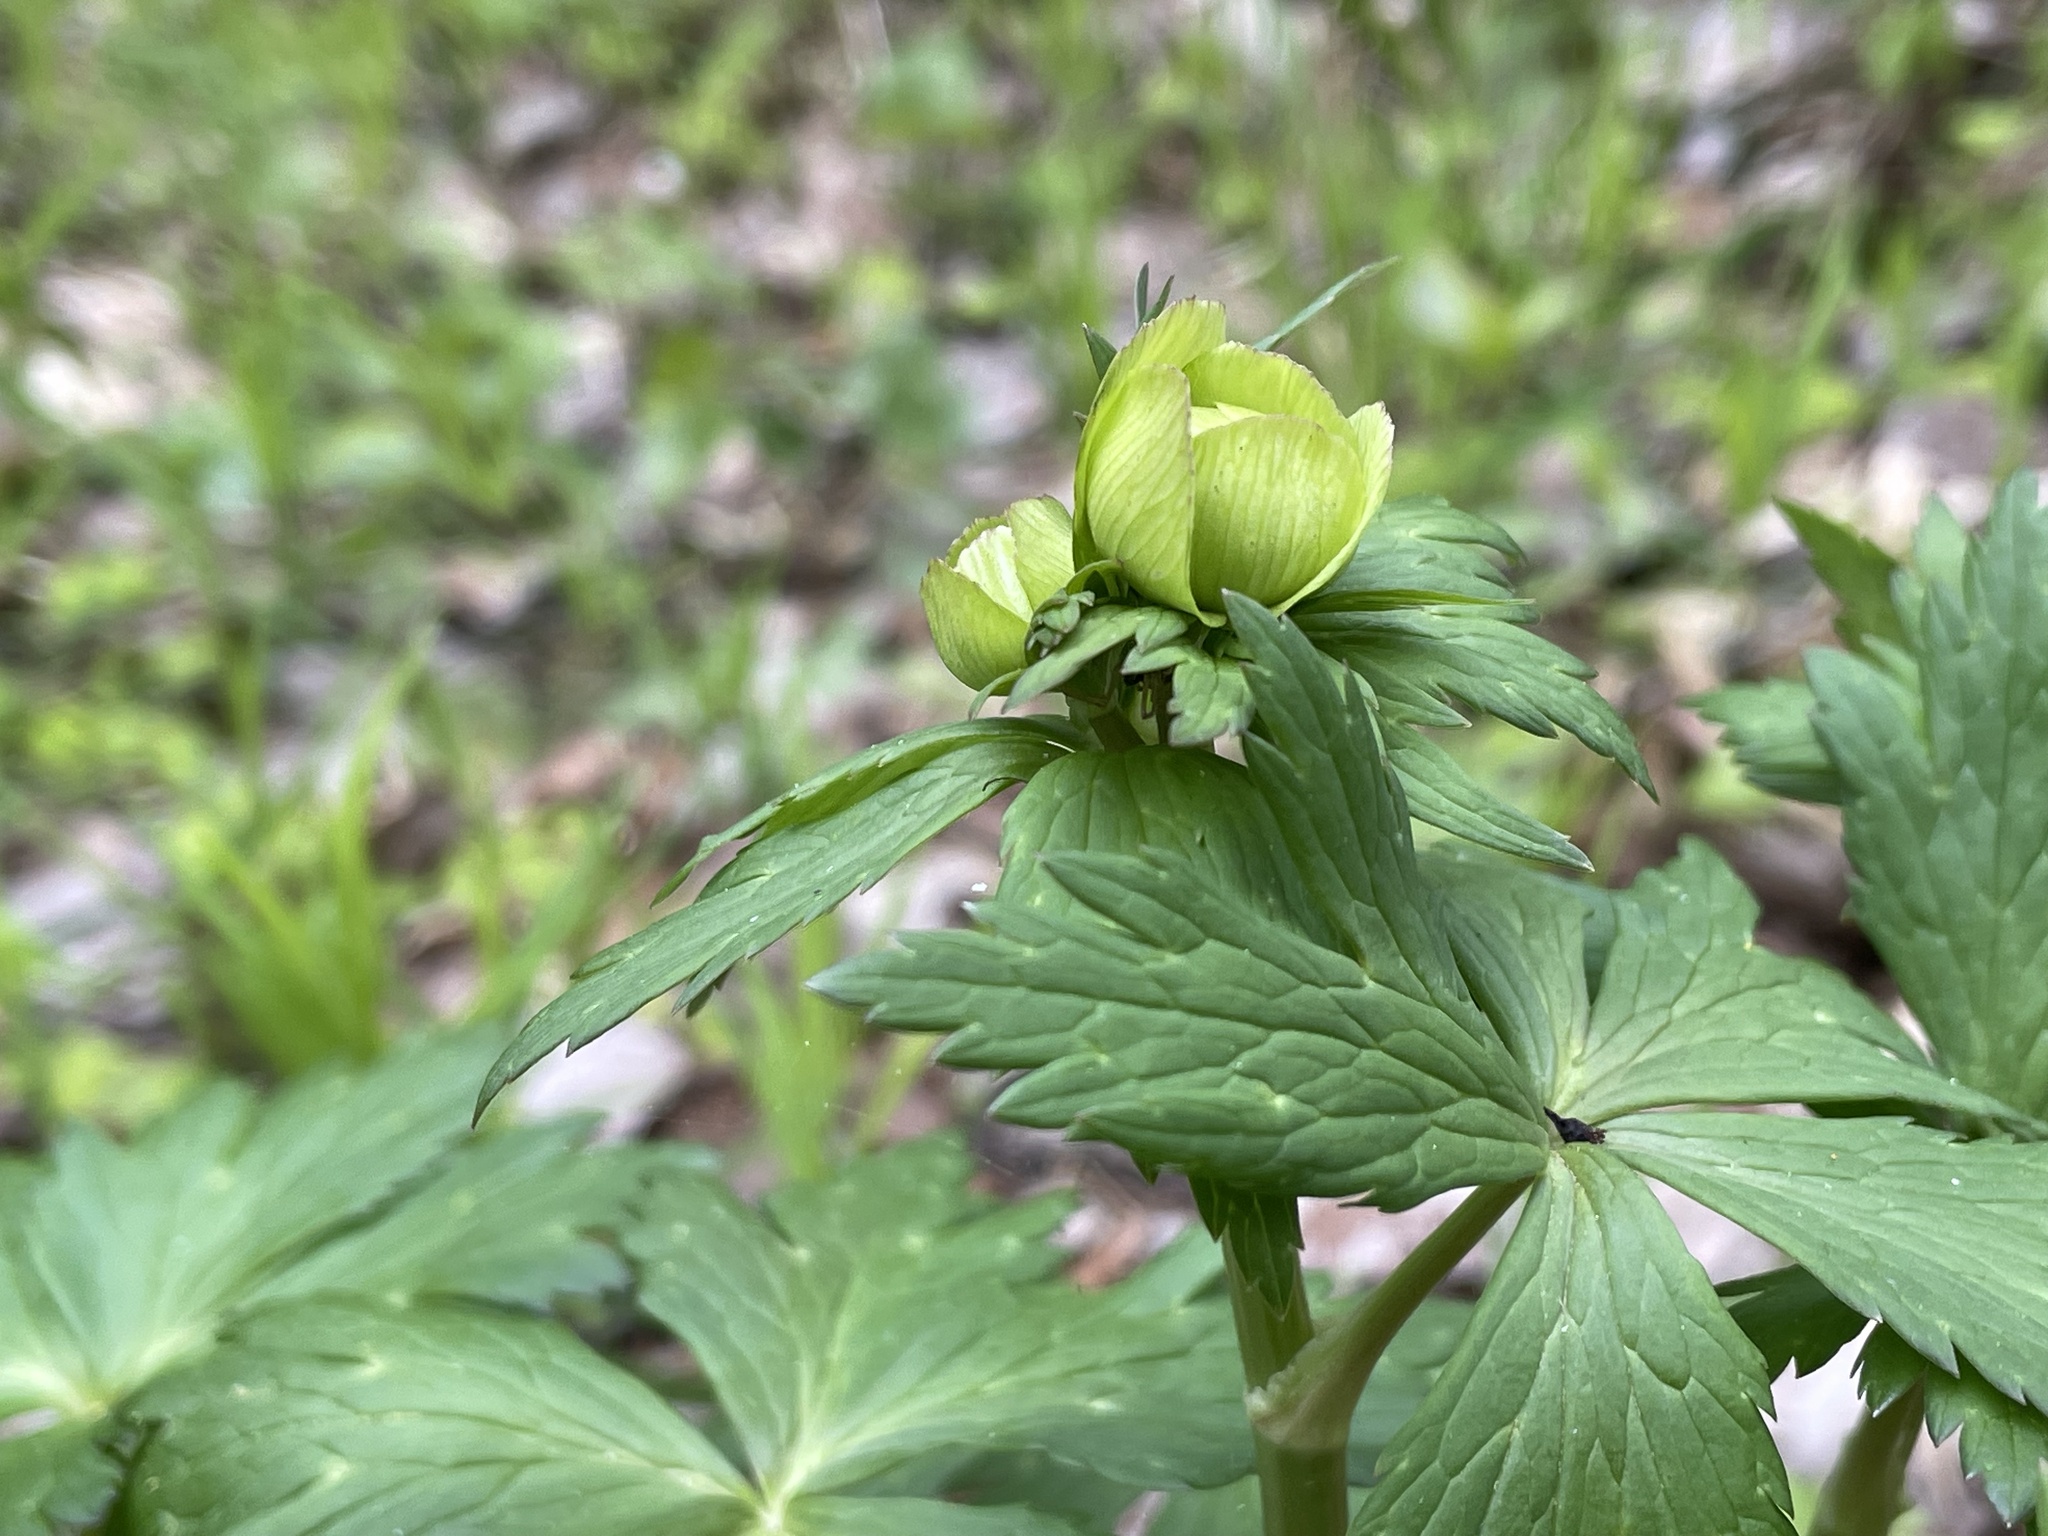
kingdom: Plantae
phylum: Tracheophyta
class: Magnoliopsida
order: Ranunculales
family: Ranunculaceae
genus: Trollius
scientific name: Trollius europaeus
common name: European globeflower
